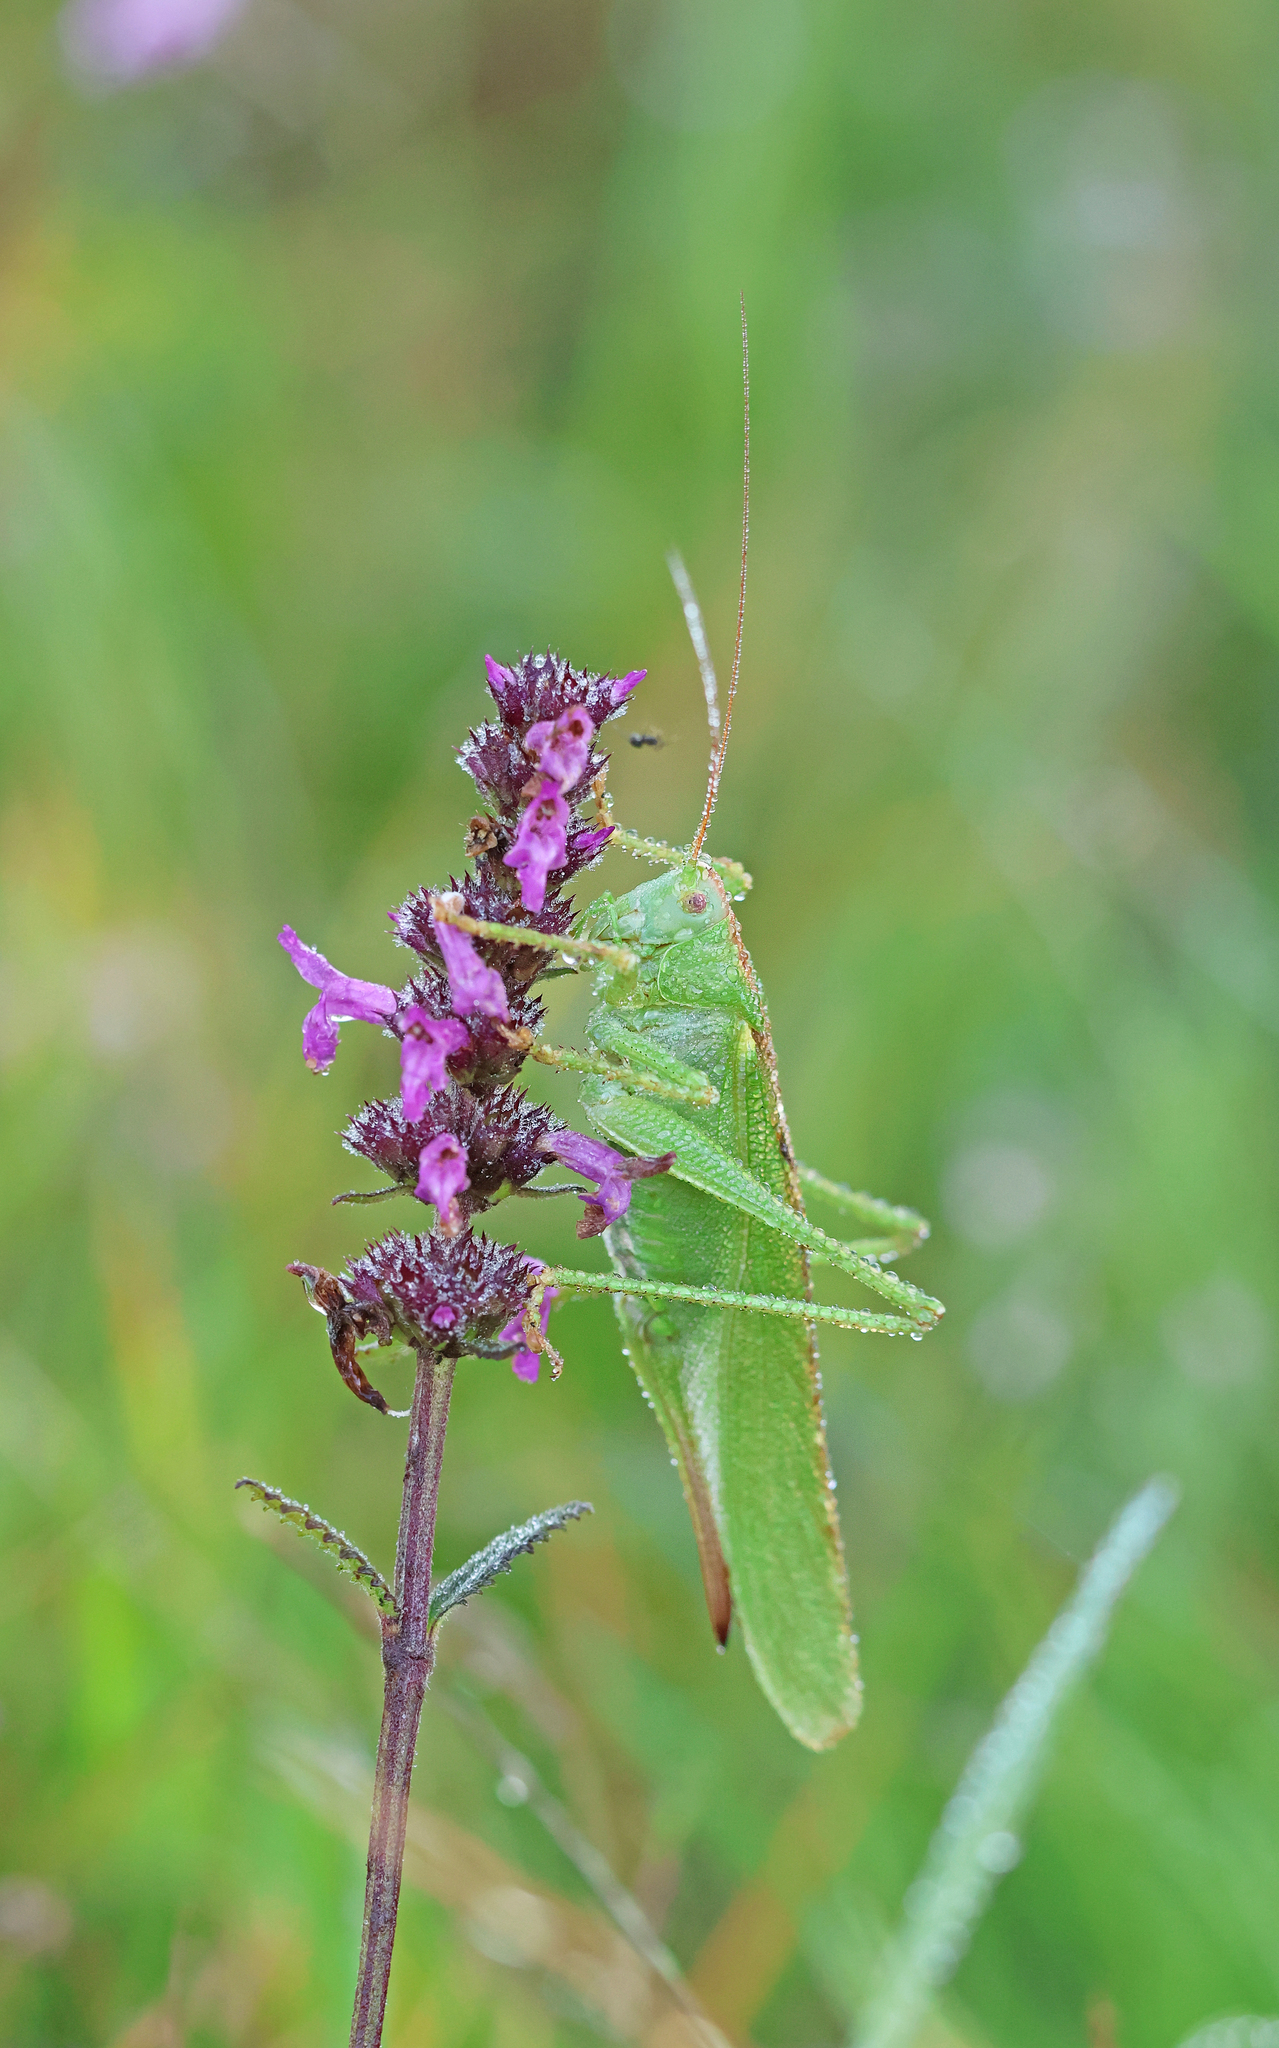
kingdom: Animalia
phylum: Arthropoda
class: Insecta
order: Orthoptera
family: Tettigoniidae
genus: Tettigonia
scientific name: Tettigonia viridissima
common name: Great green bush-cricket
